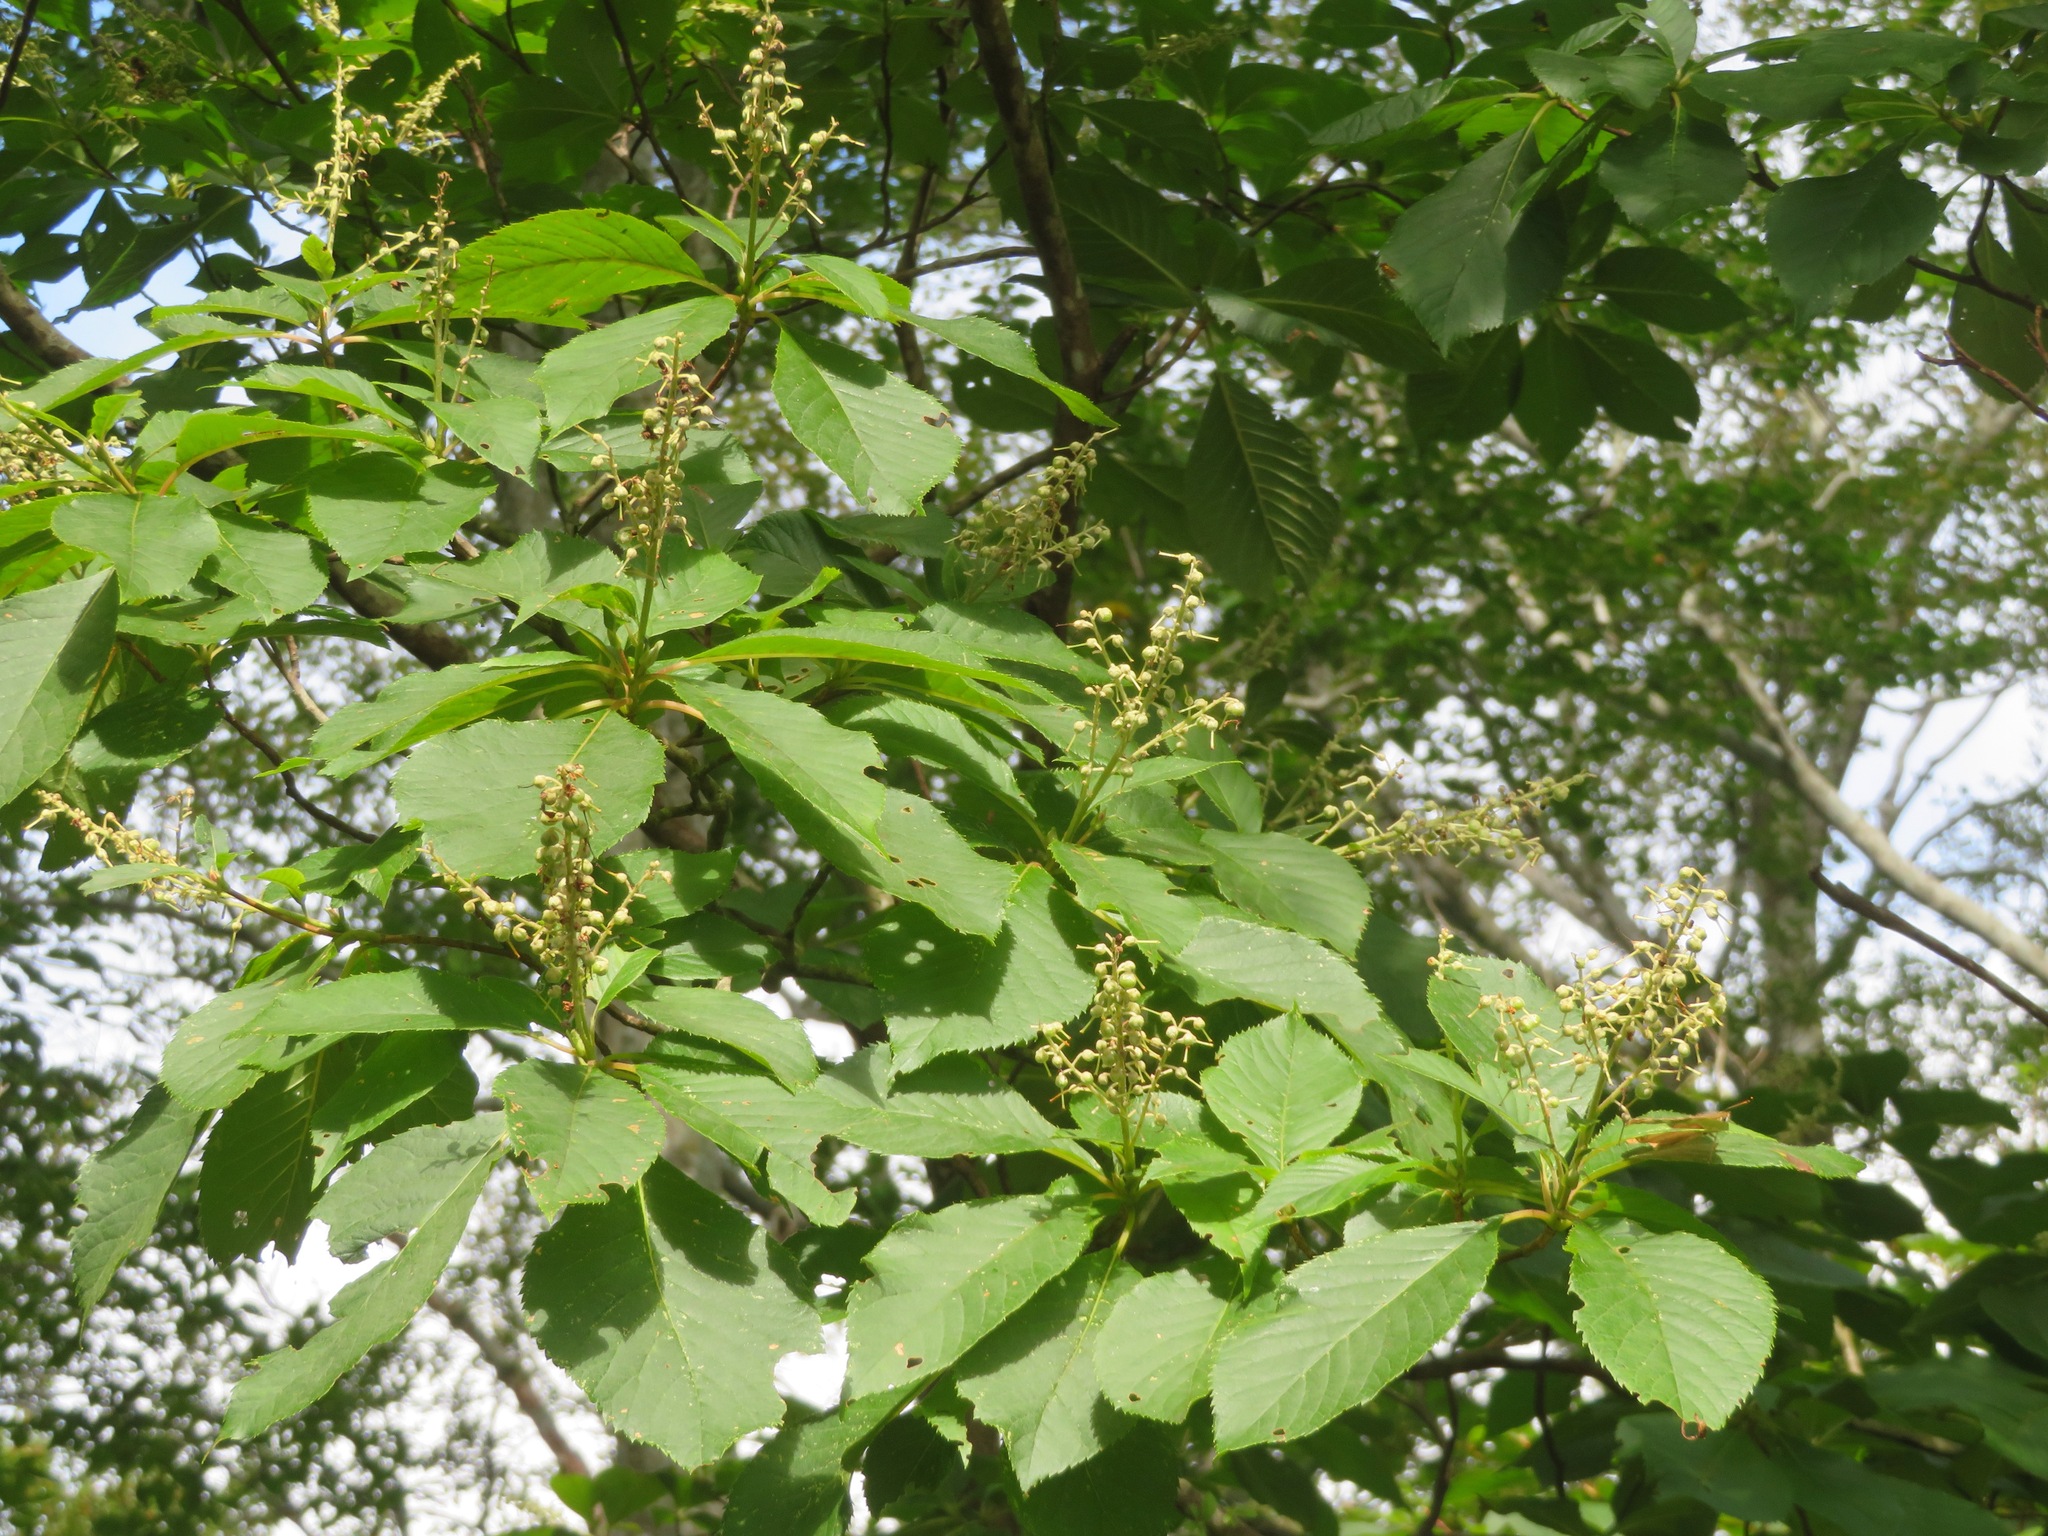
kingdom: Plantae
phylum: Tracheophyta
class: Magnoliopsida
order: Ericales
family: Clethraceae
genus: Clethra
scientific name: Clethra barbinervis
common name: Japanese clethra
